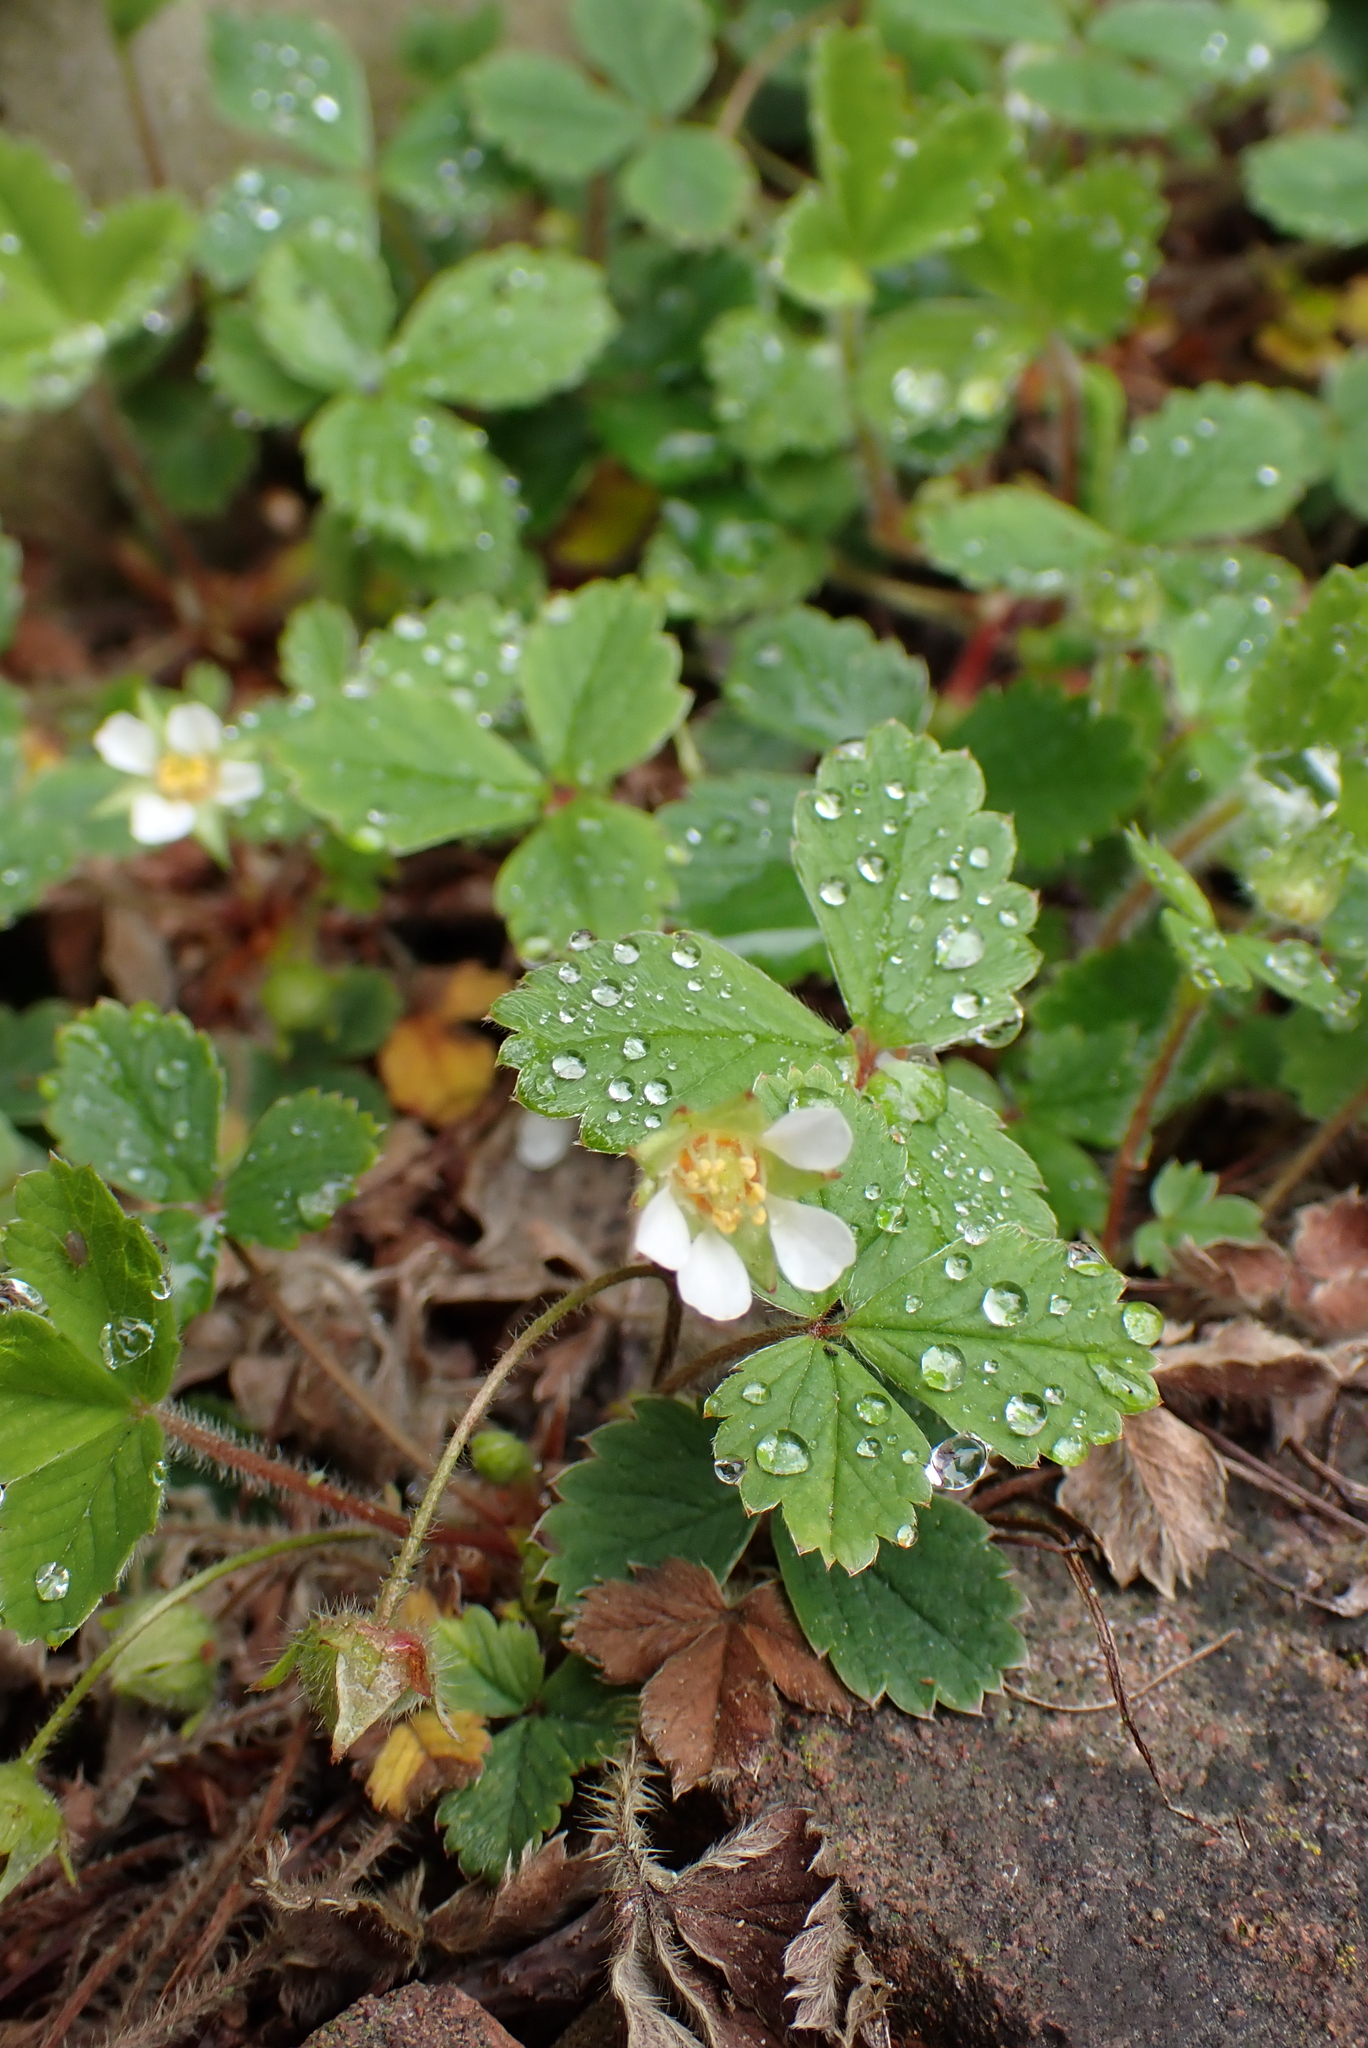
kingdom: Plantae
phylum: Tracheophyta
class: Magnoliopsida
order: Rosales
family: Rosaceae
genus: Potentilla
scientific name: Potentilla sterilis
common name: Barren strawberry
